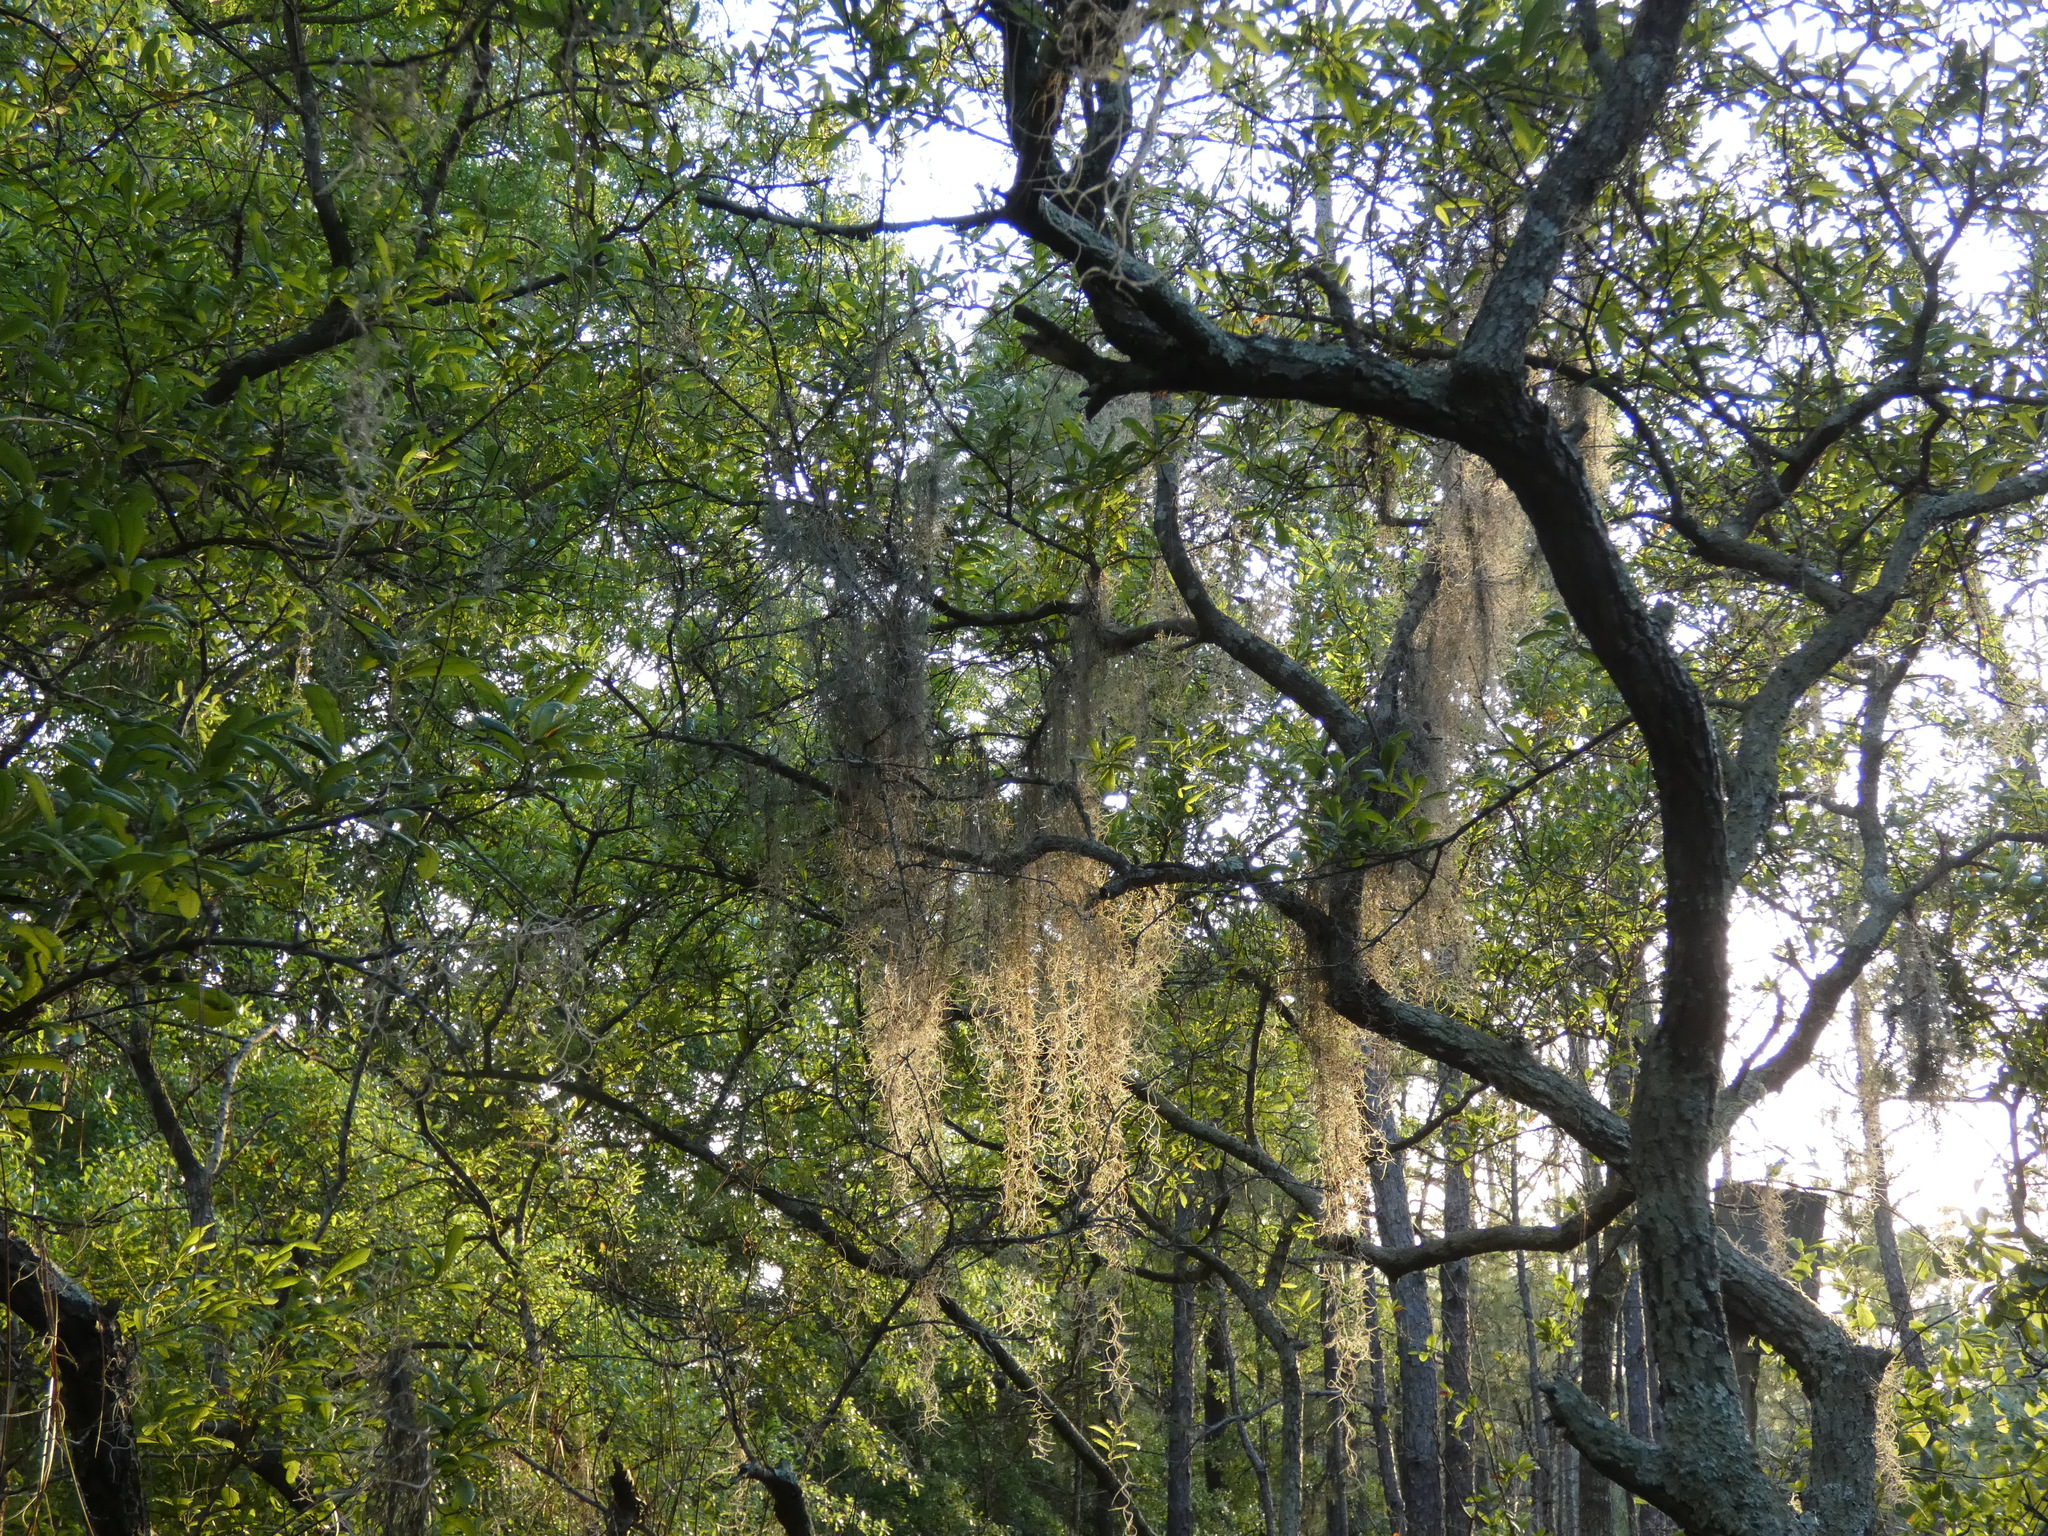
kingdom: Plantae
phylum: Tracheophyta
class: Liliopsida
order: Poales
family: Bromeliaceae
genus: Tillandsia
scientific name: Tillandsia usneoides
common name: Spanish moss
